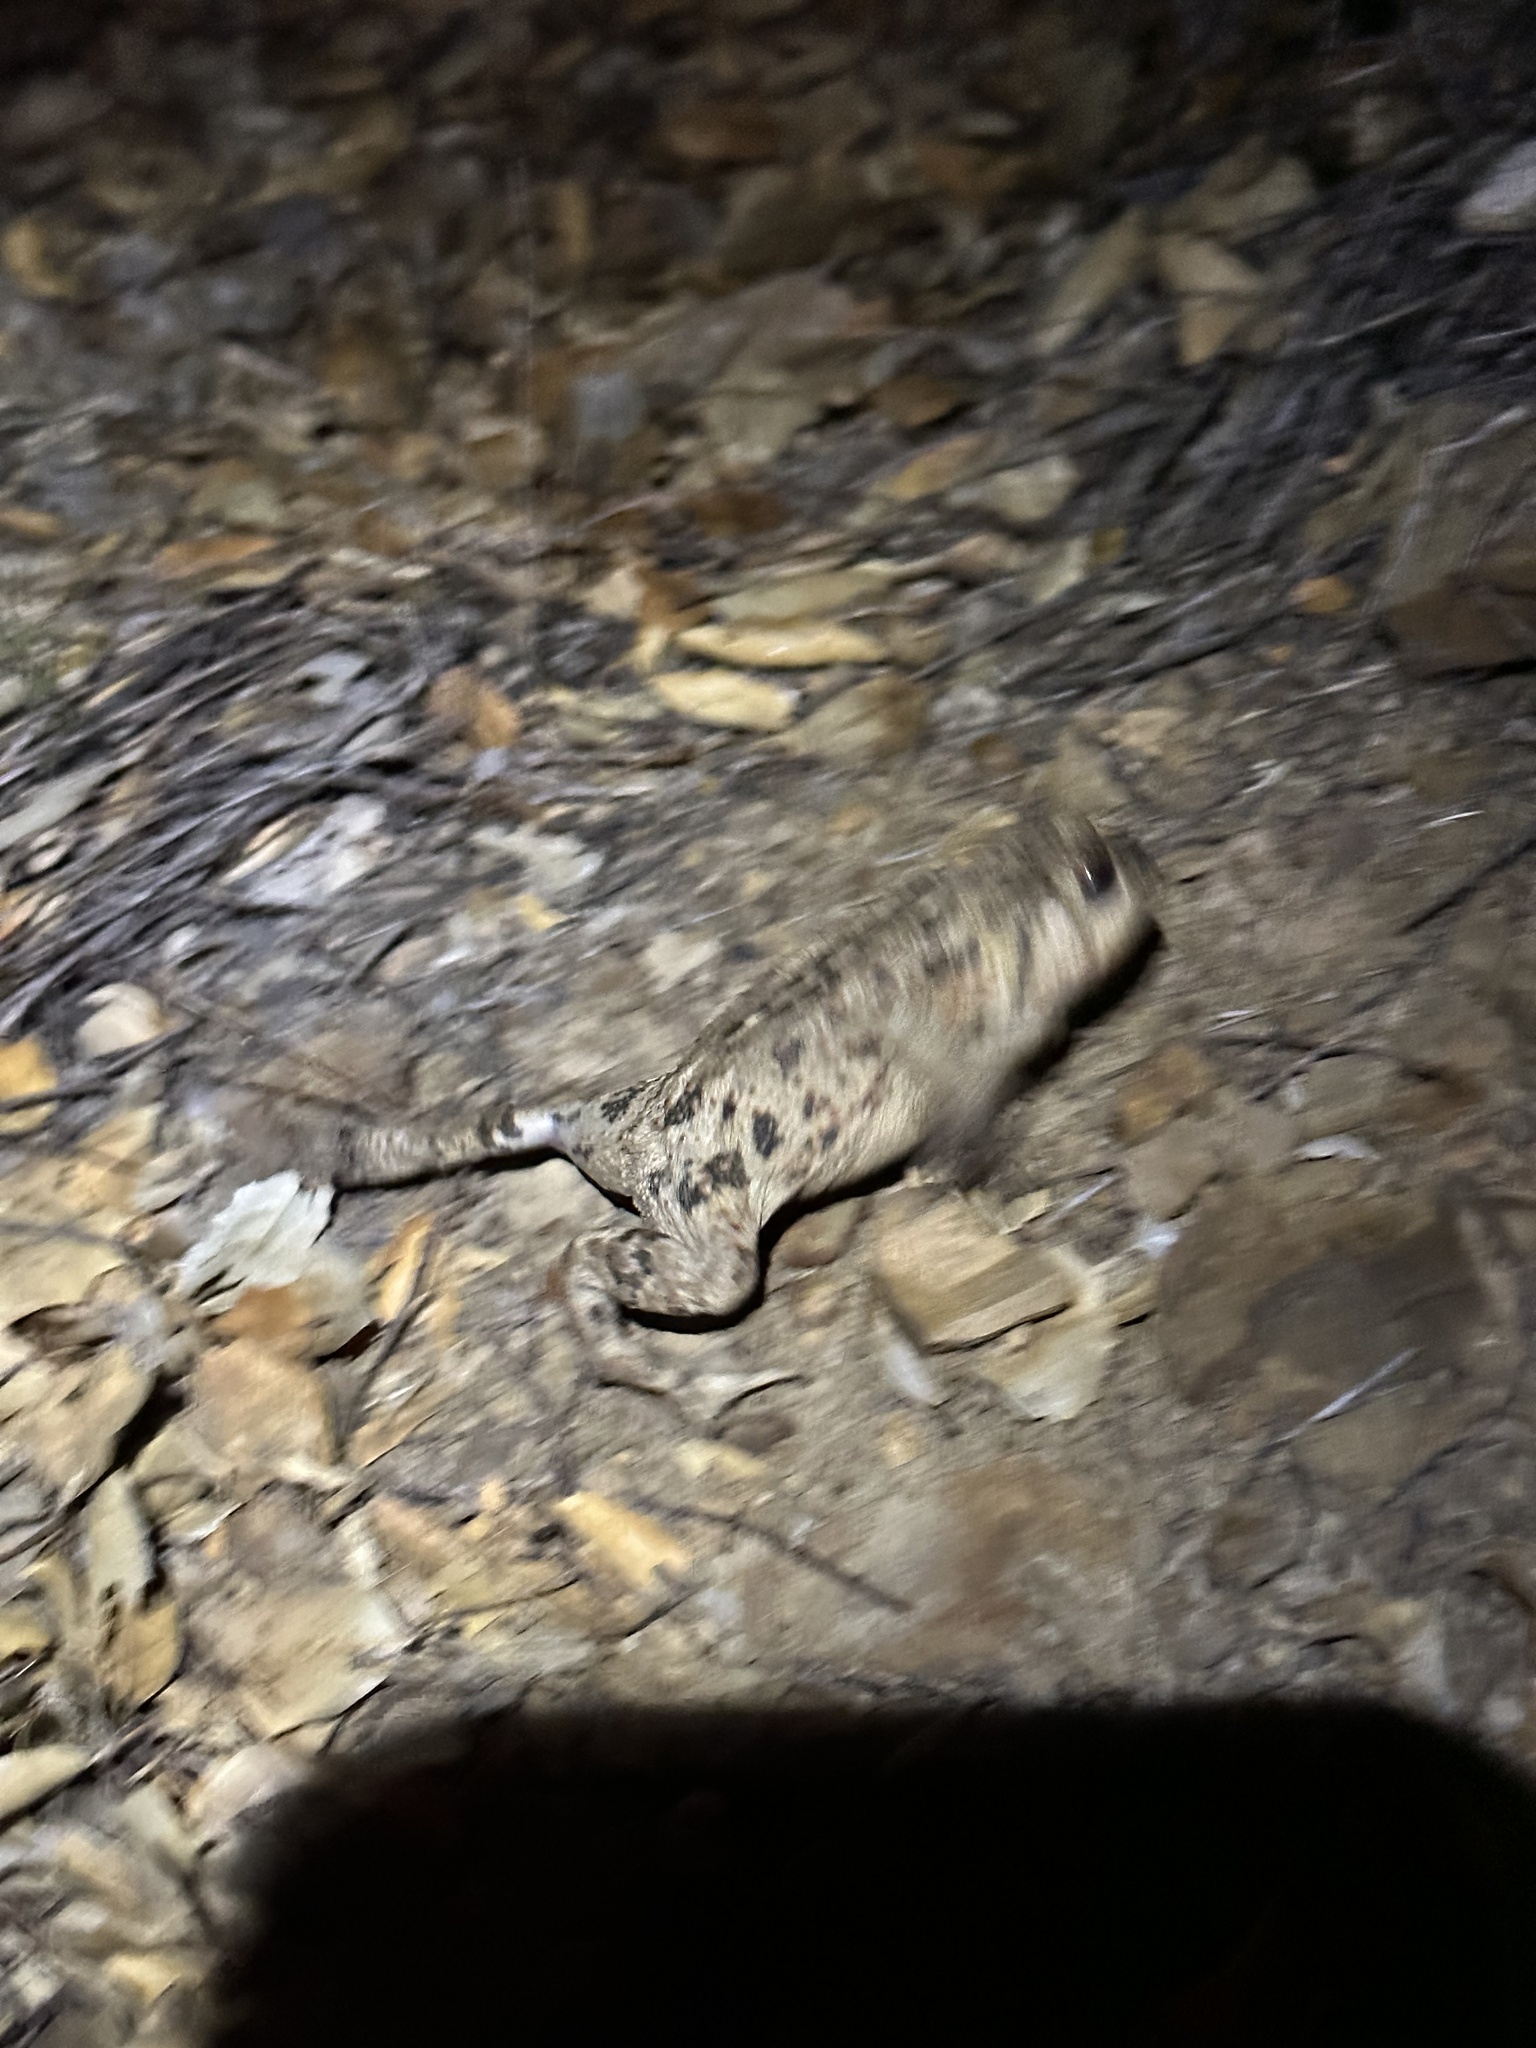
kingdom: Animalia
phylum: Chordata
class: Amphibia
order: Anura
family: Bufonidae
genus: Anaxyrus
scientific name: Anaxyrus boreas
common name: Western toad
